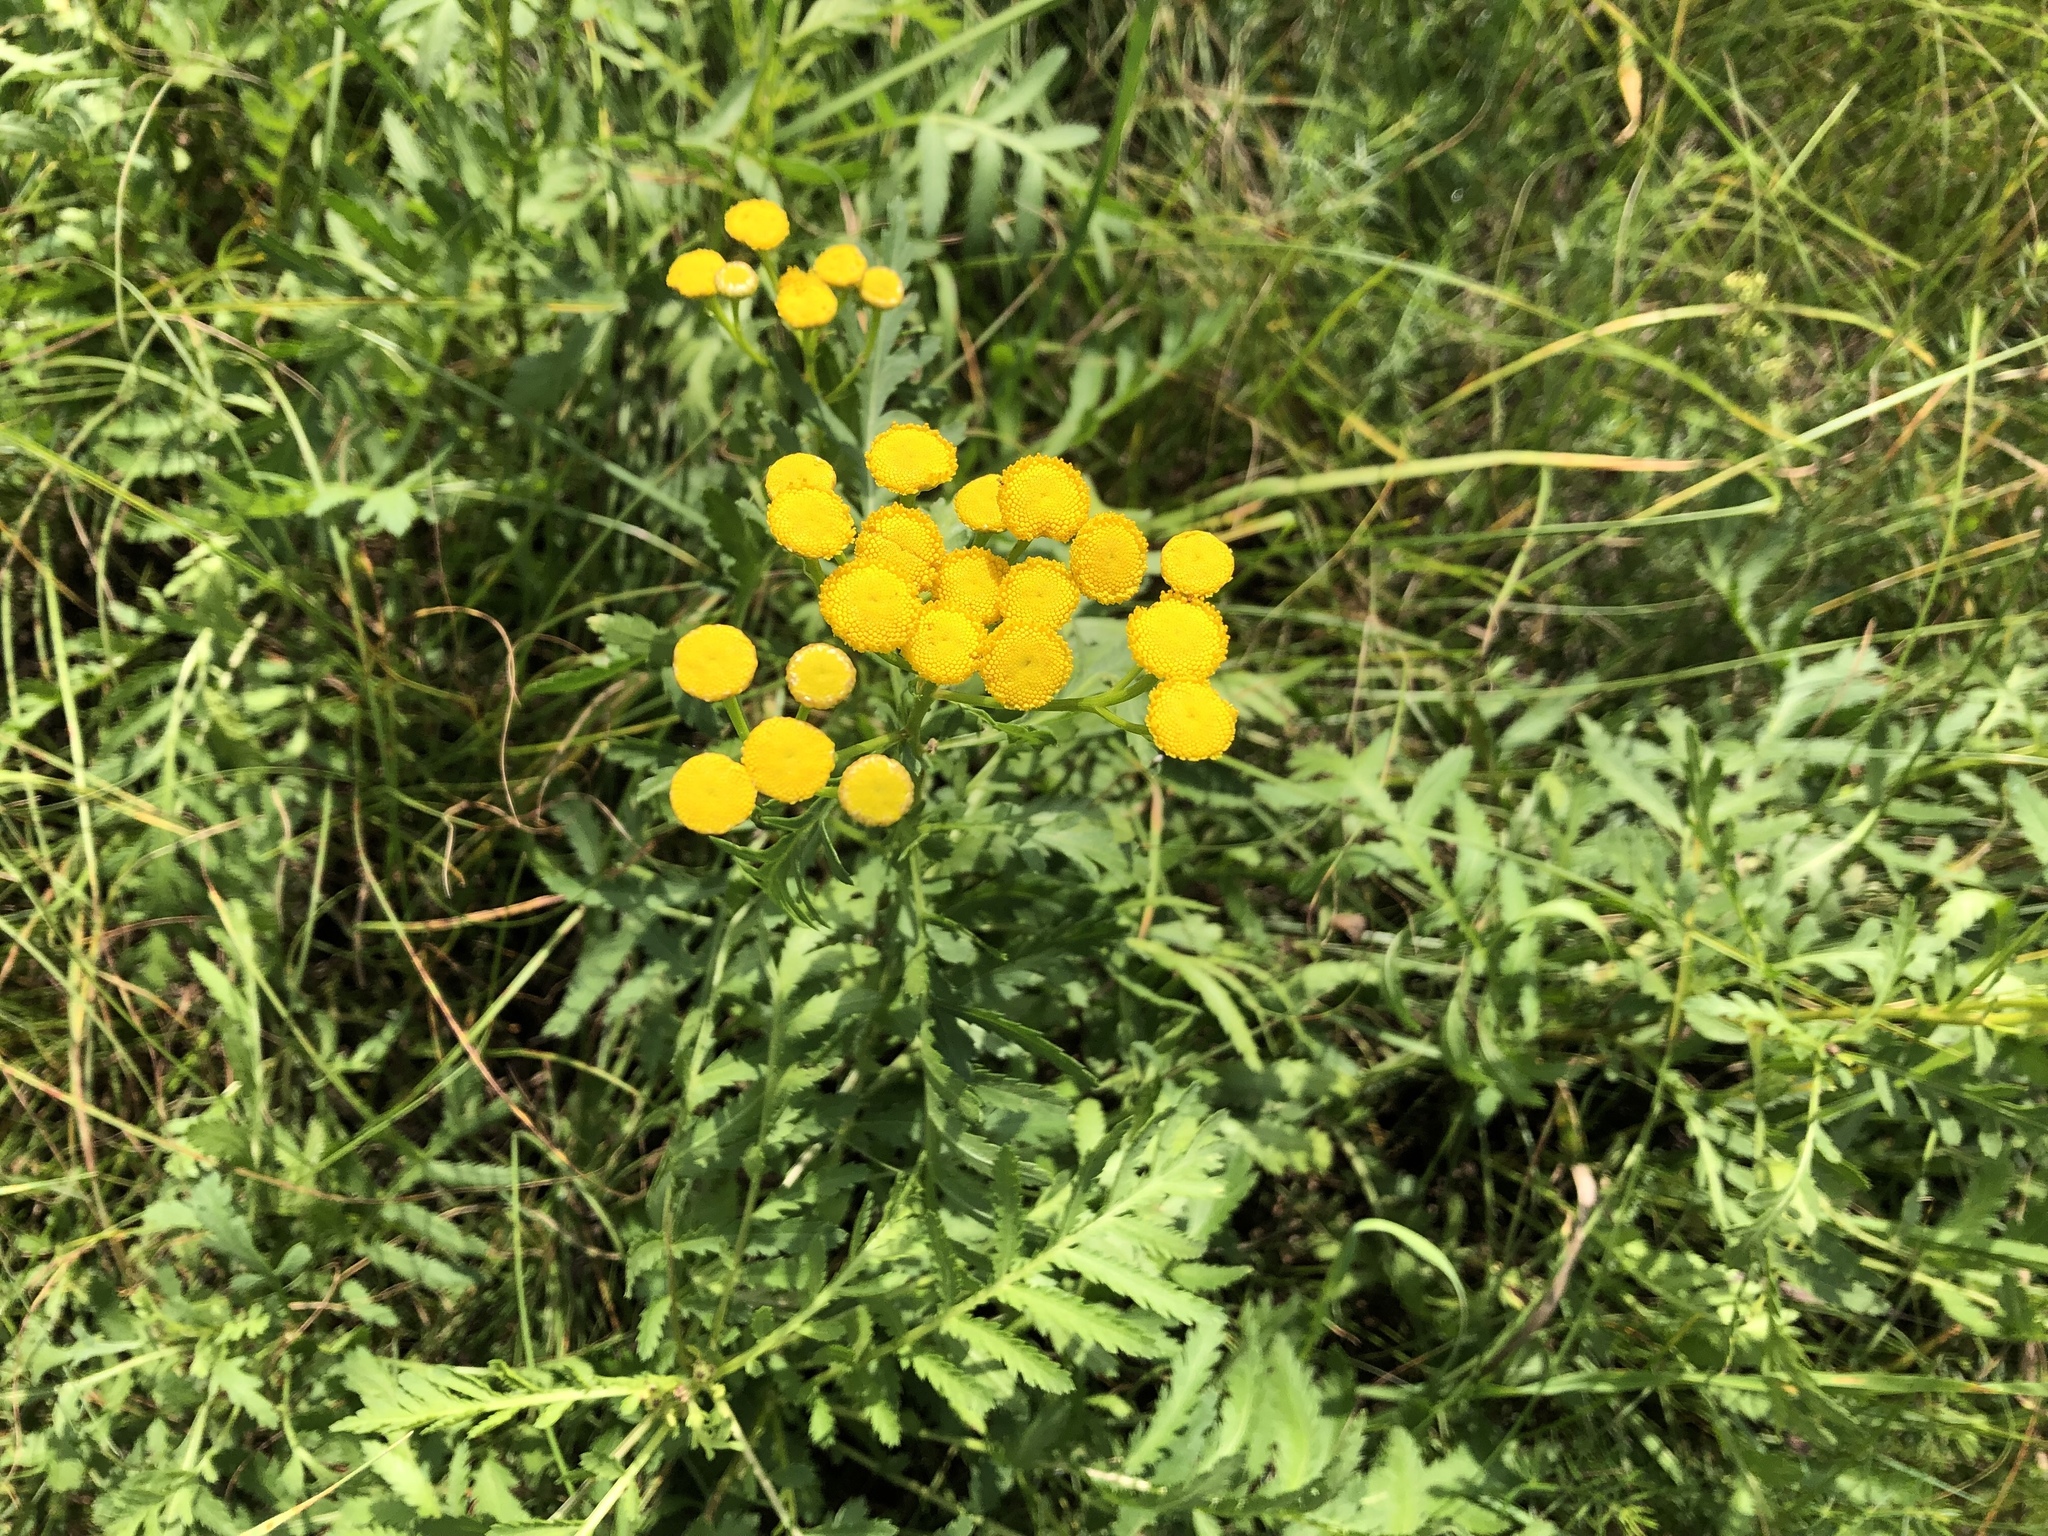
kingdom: Plantae
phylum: Tracheophyta
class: Magnoliopsida
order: Asterales
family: Asteraceae
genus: Tanacetum
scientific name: Tanacetum vulgare
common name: Common tansy
